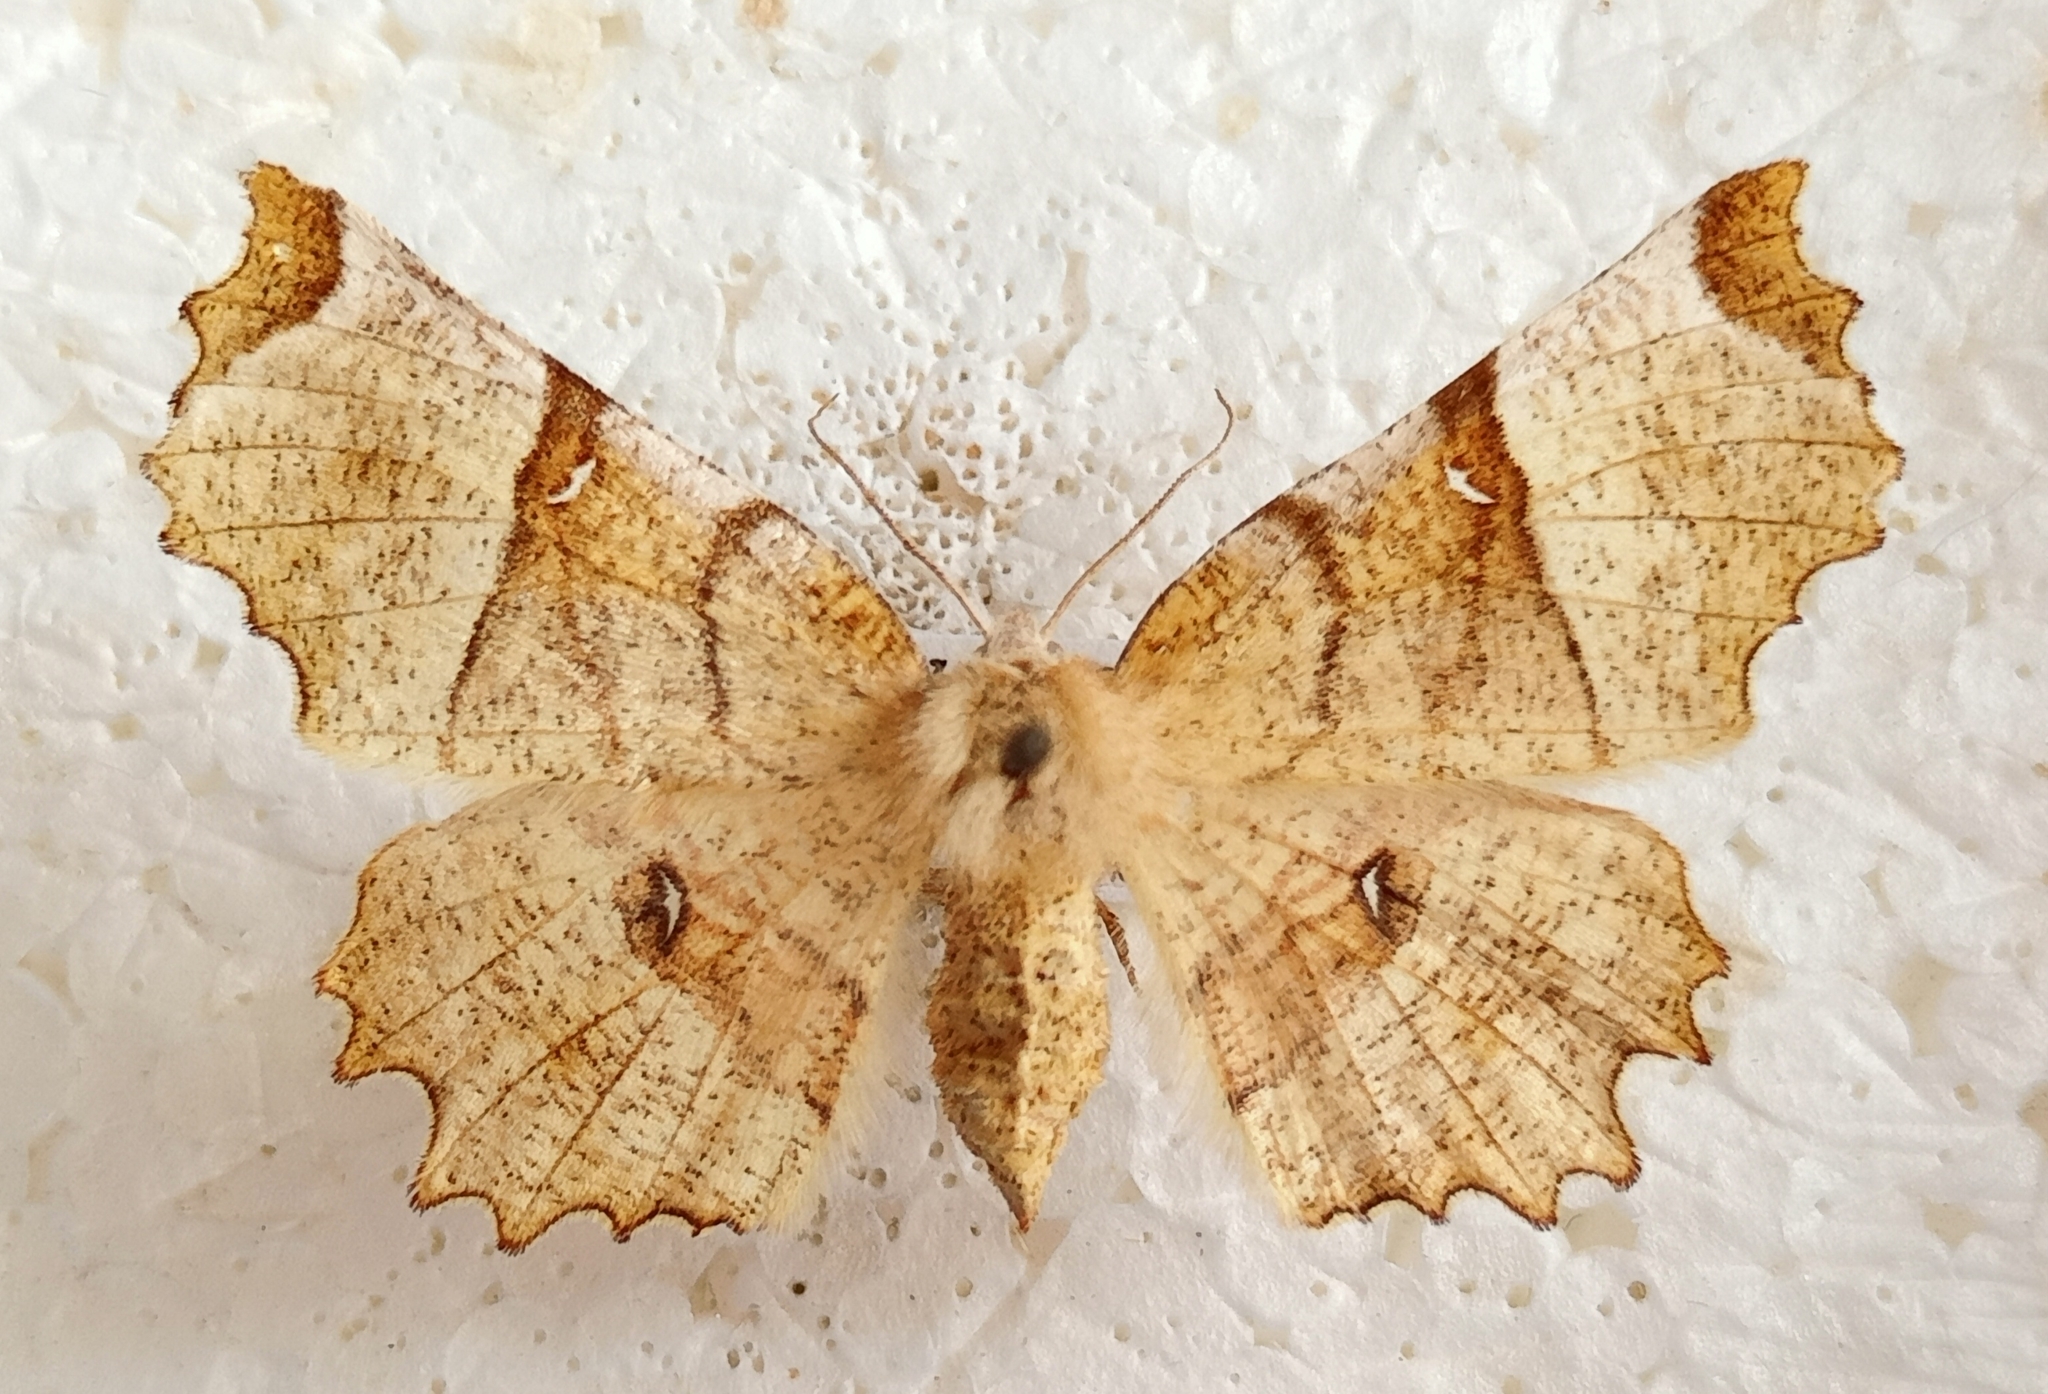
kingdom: Animalia
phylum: Arthropoda
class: Insecta
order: Lepidoptera
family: Geometridae
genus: Selenia
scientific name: Selenia lunularia
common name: Lunar thorn
